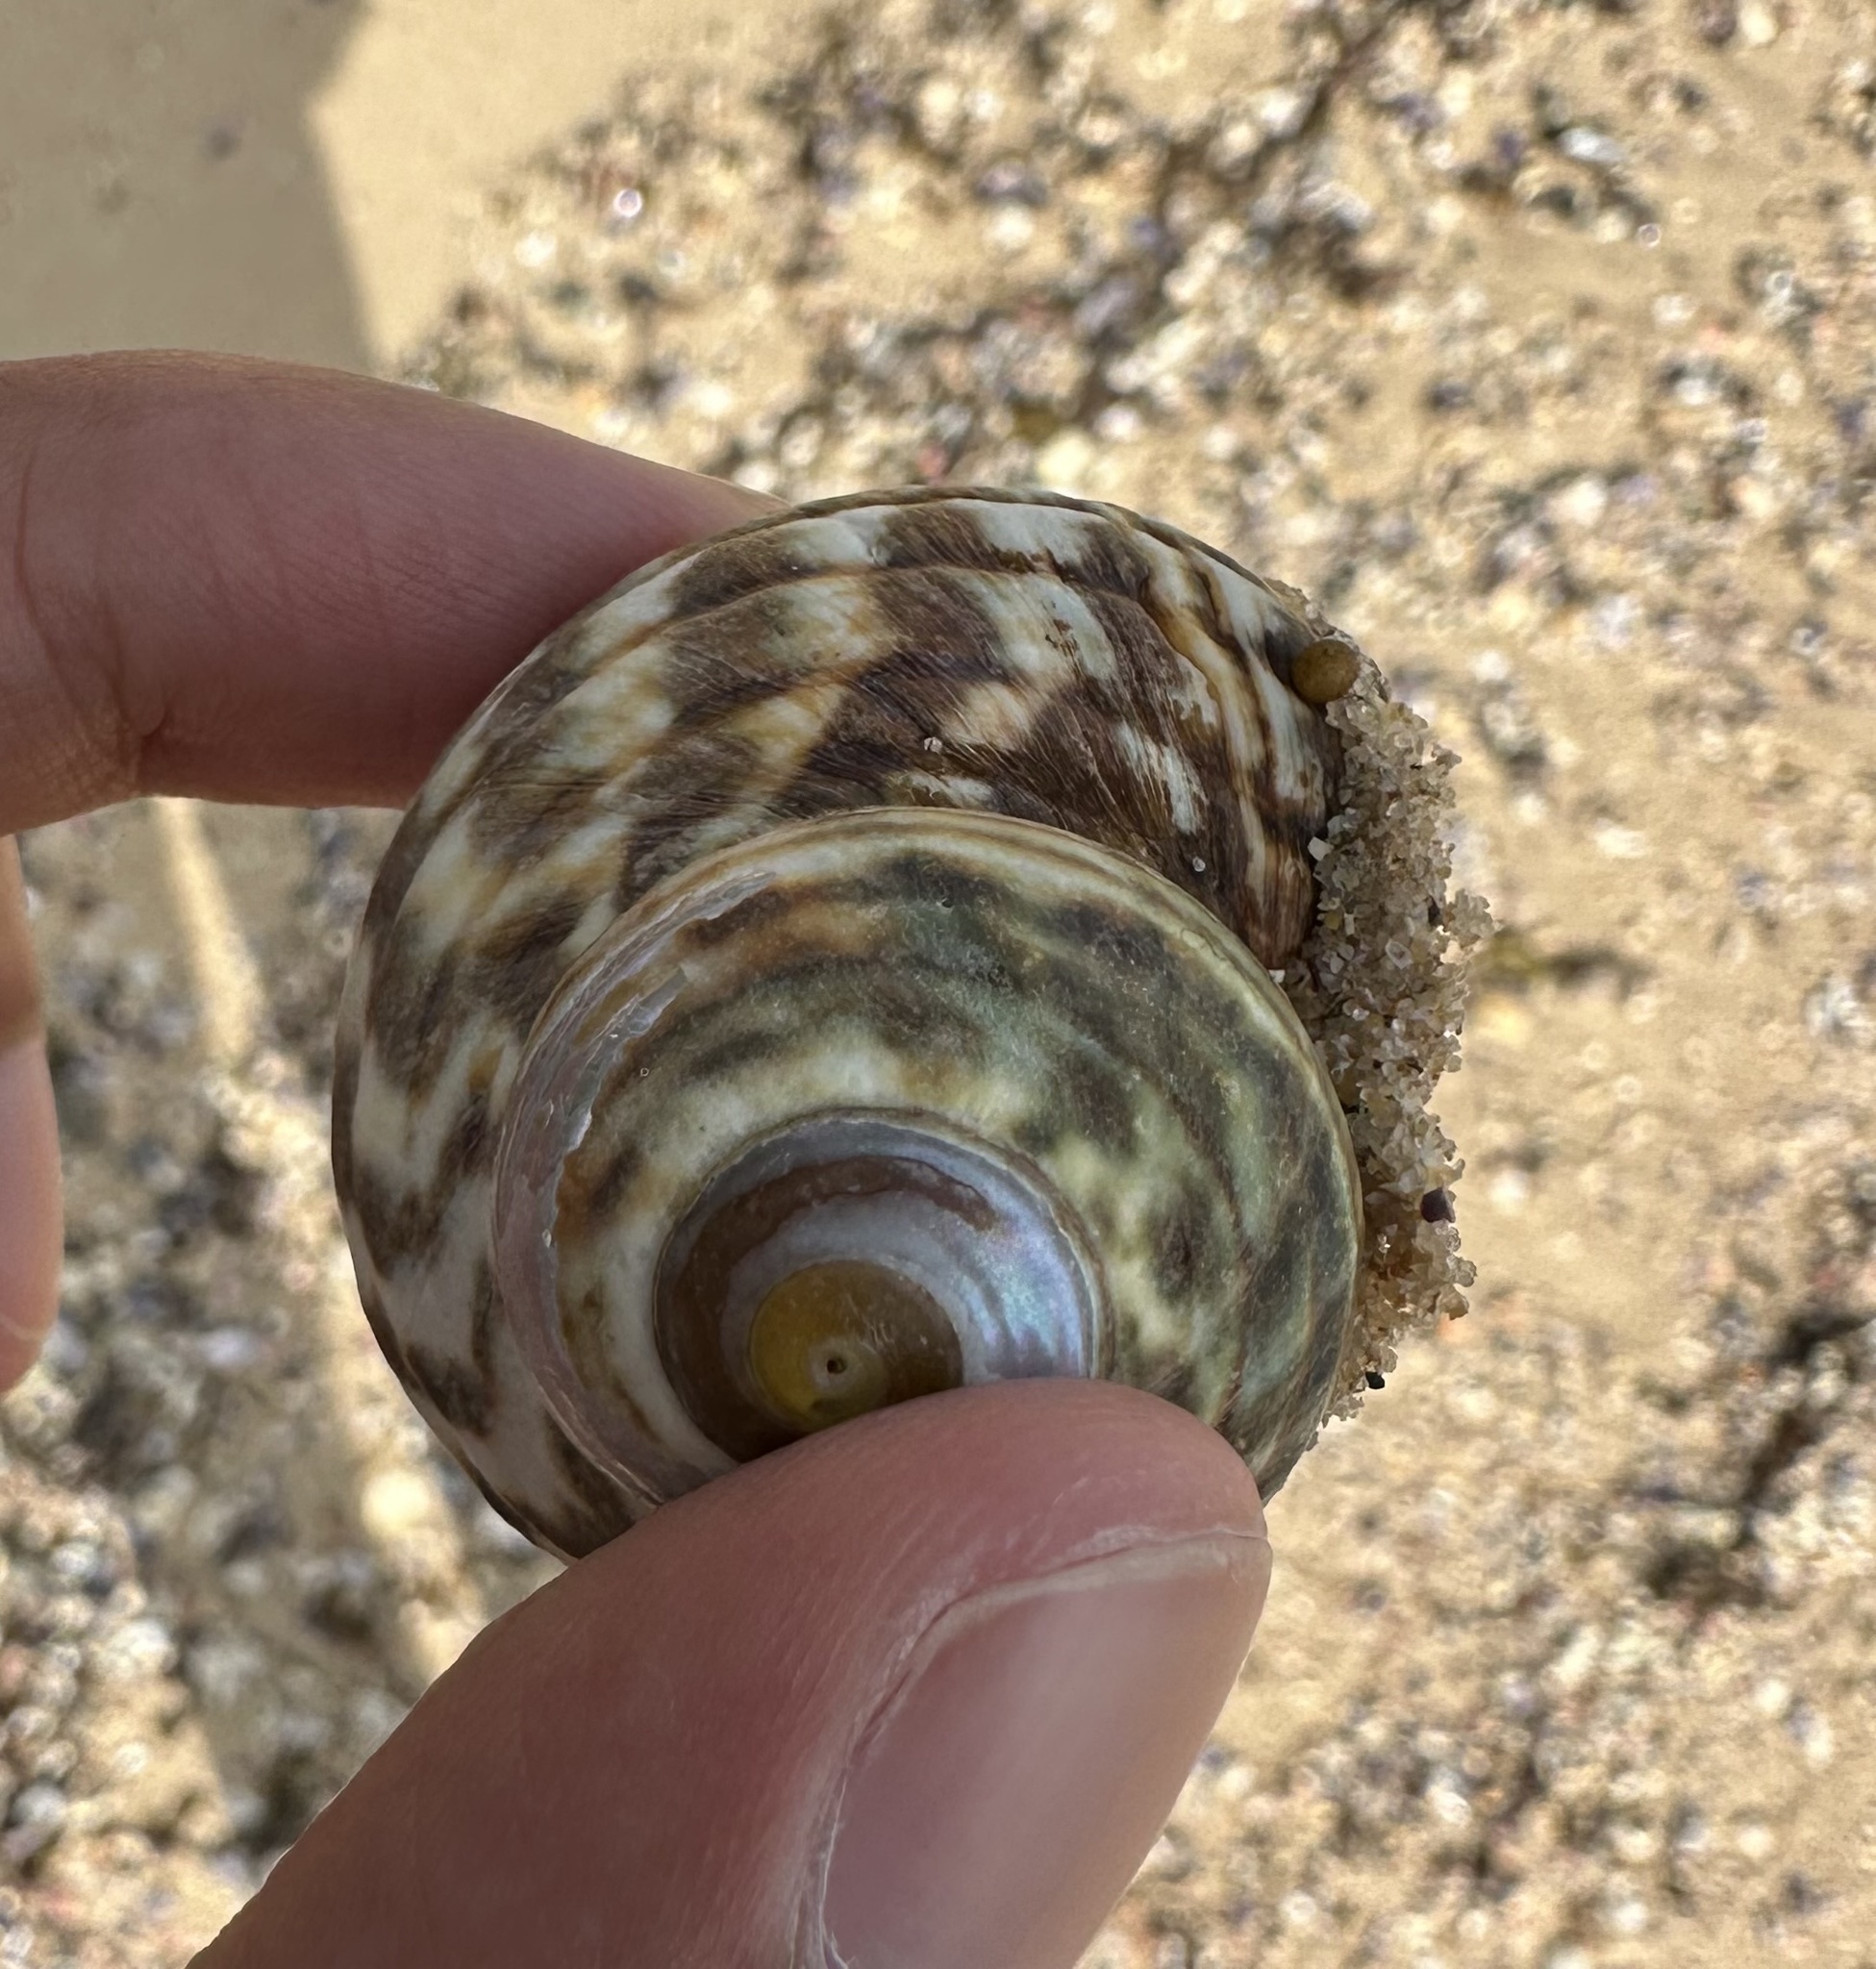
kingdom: Animalia
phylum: Mollusca
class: Gastropoda
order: Trochida
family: Turbinidae
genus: Lunella
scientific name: Lunella undulata
